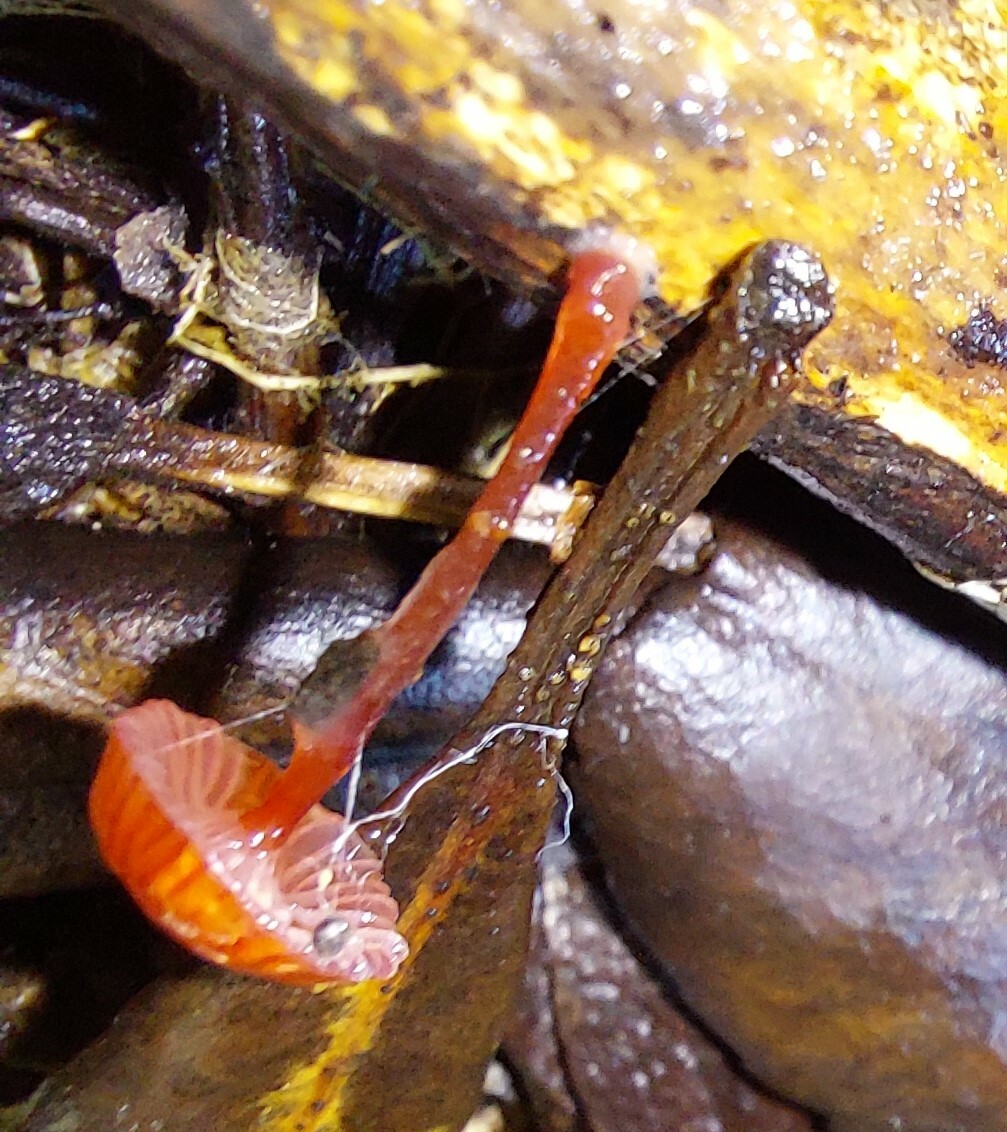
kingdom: Fungi
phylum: Basidiomycota
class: Agaricomycetes
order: Agaricales
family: Mycenaceae
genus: Cruentomycena
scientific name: Cruentomycena viscidocruenta
